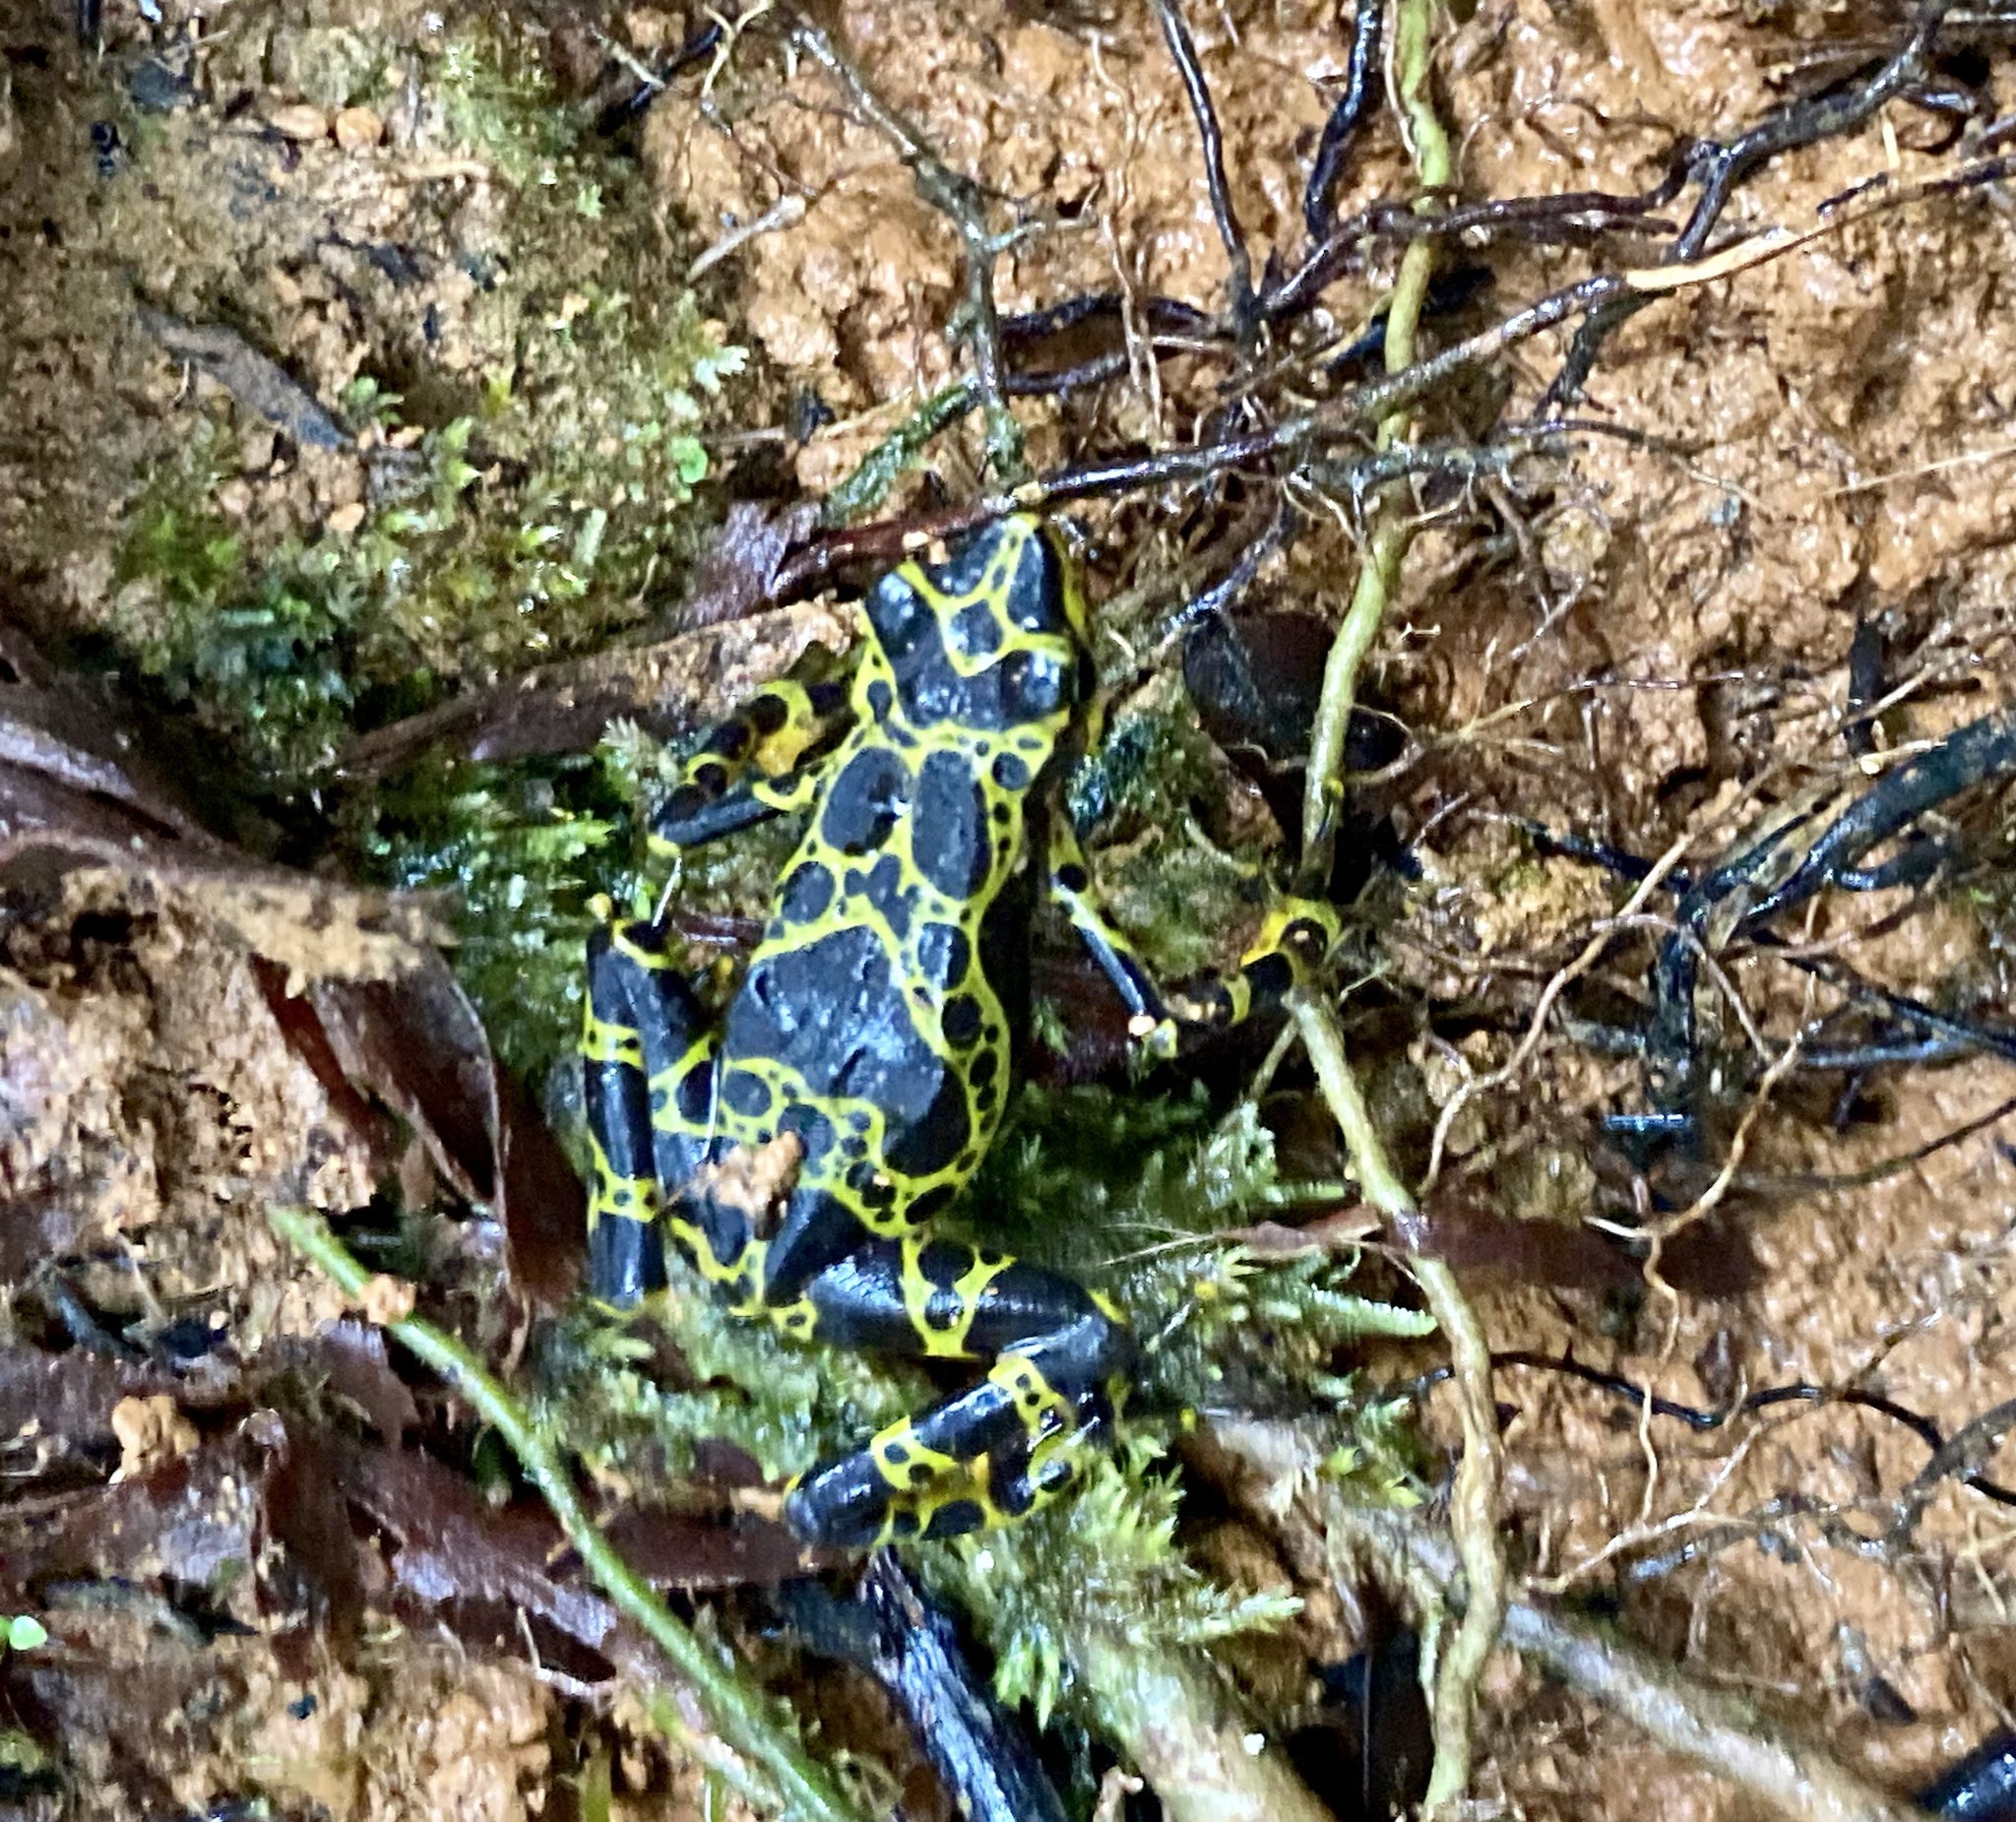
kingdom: Animalia
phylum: Chordata
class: Amphibia
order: Anura
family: Bufonidae
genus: Atelopus
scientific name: Atelopus spurrelli
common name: Condoto stubfoot toad
